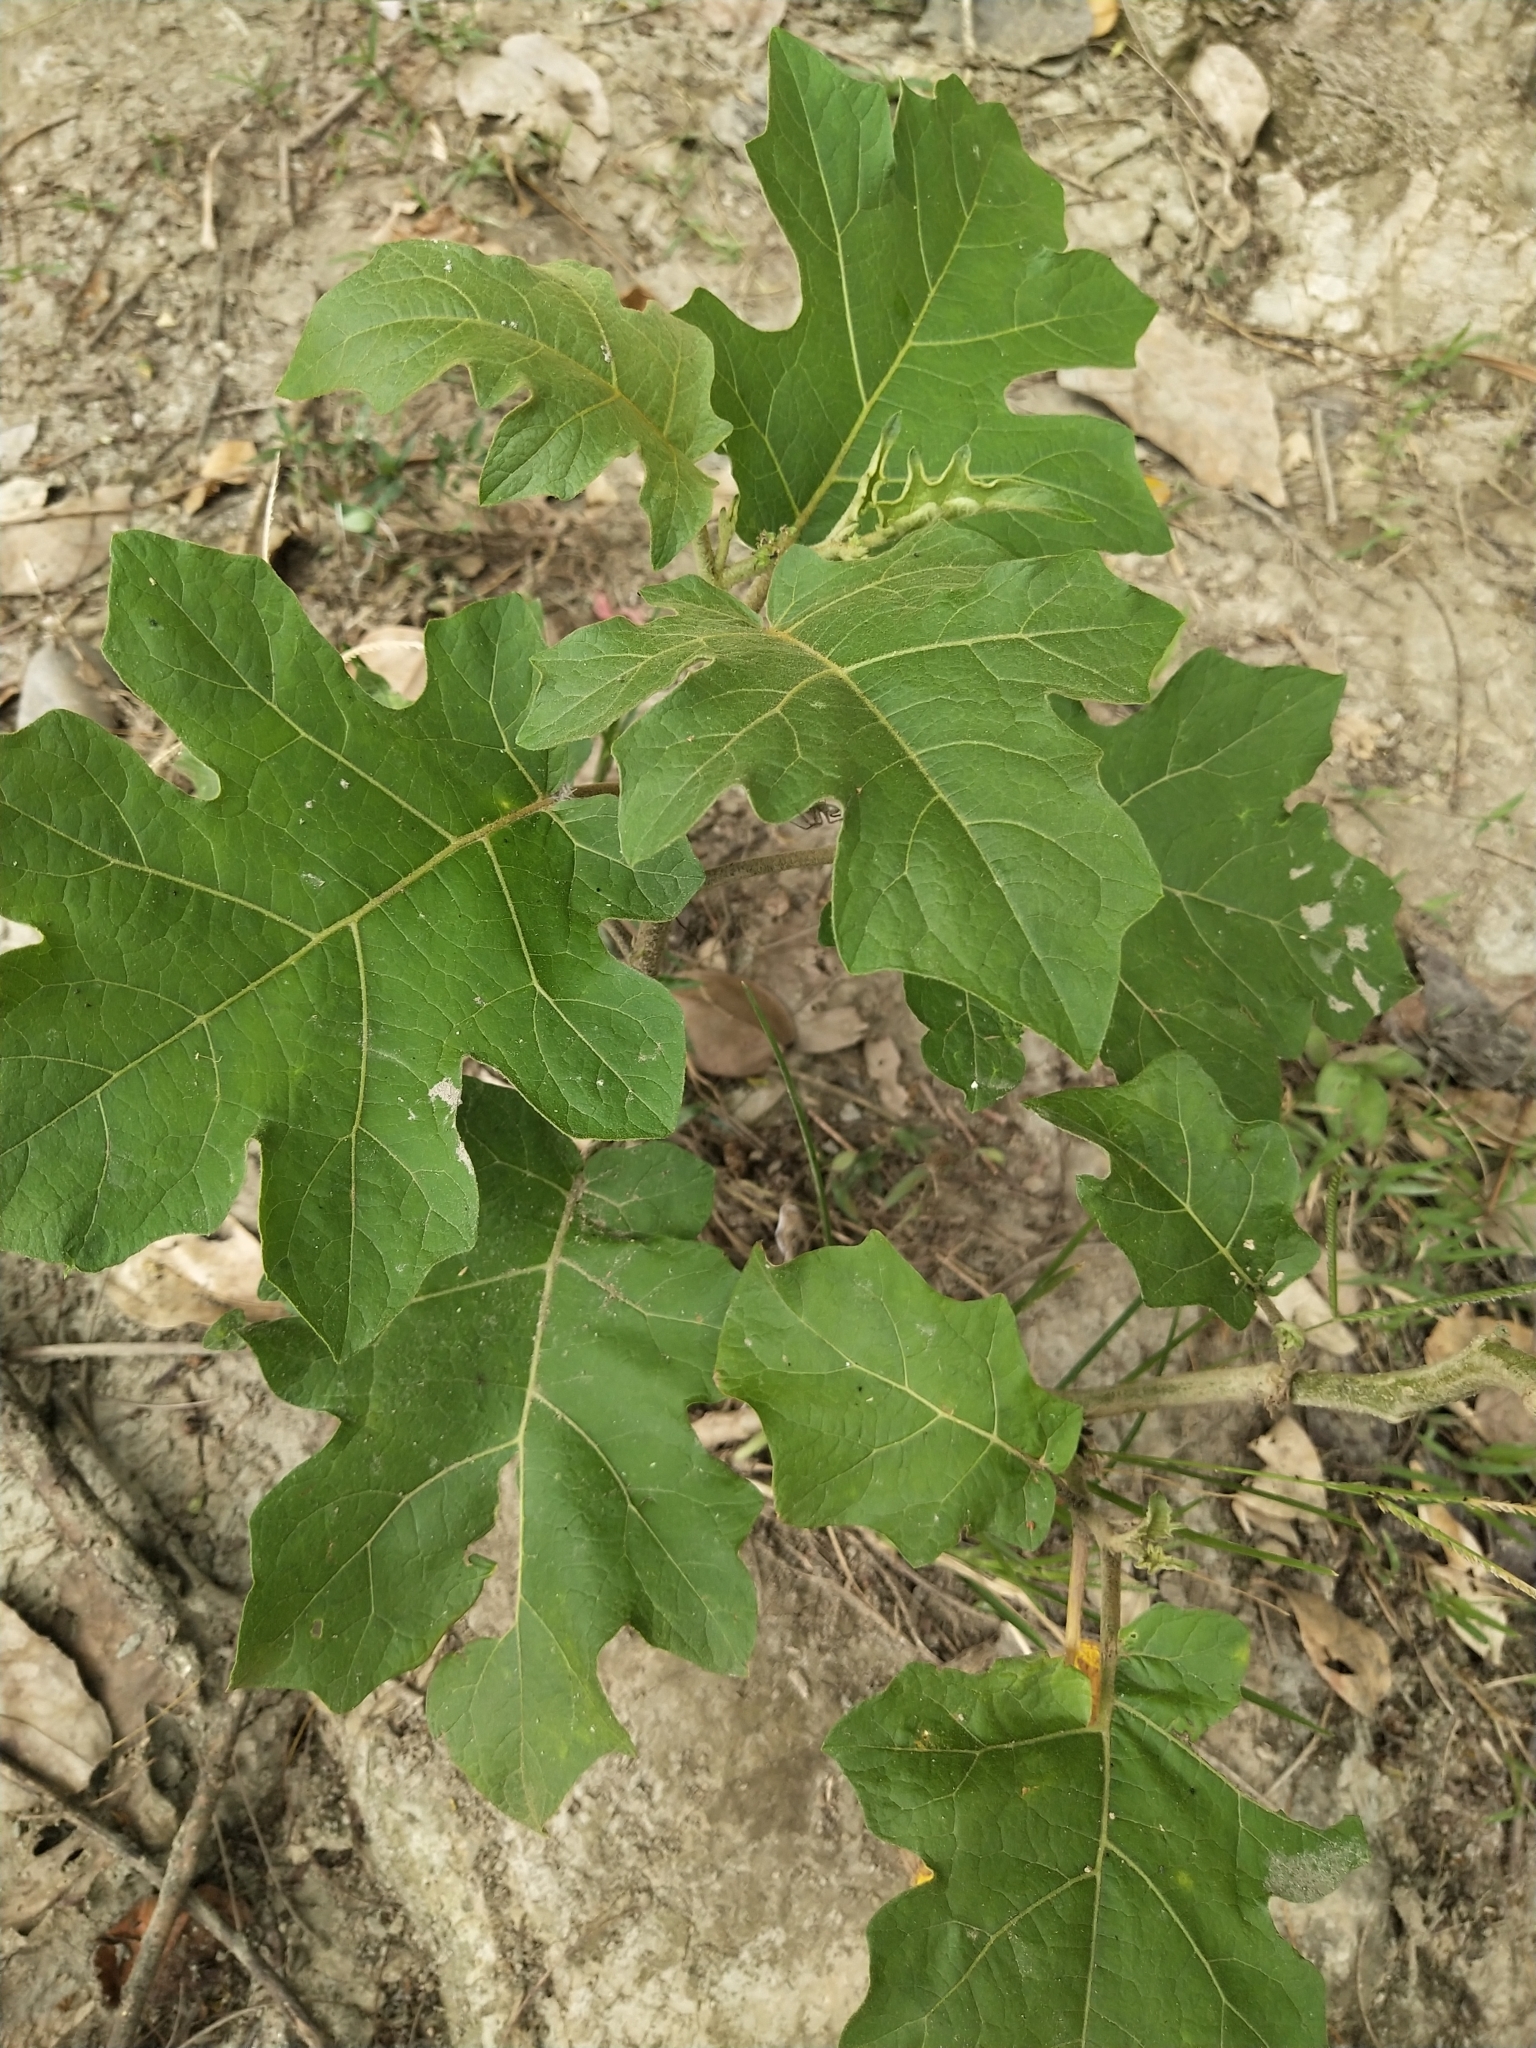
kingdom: Plantae
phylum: Tracheophyta
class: Magnoliopsida
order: Solanales
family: Solanaceae
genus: Solanum
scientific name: Solanum torvum
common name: Turkey berry
